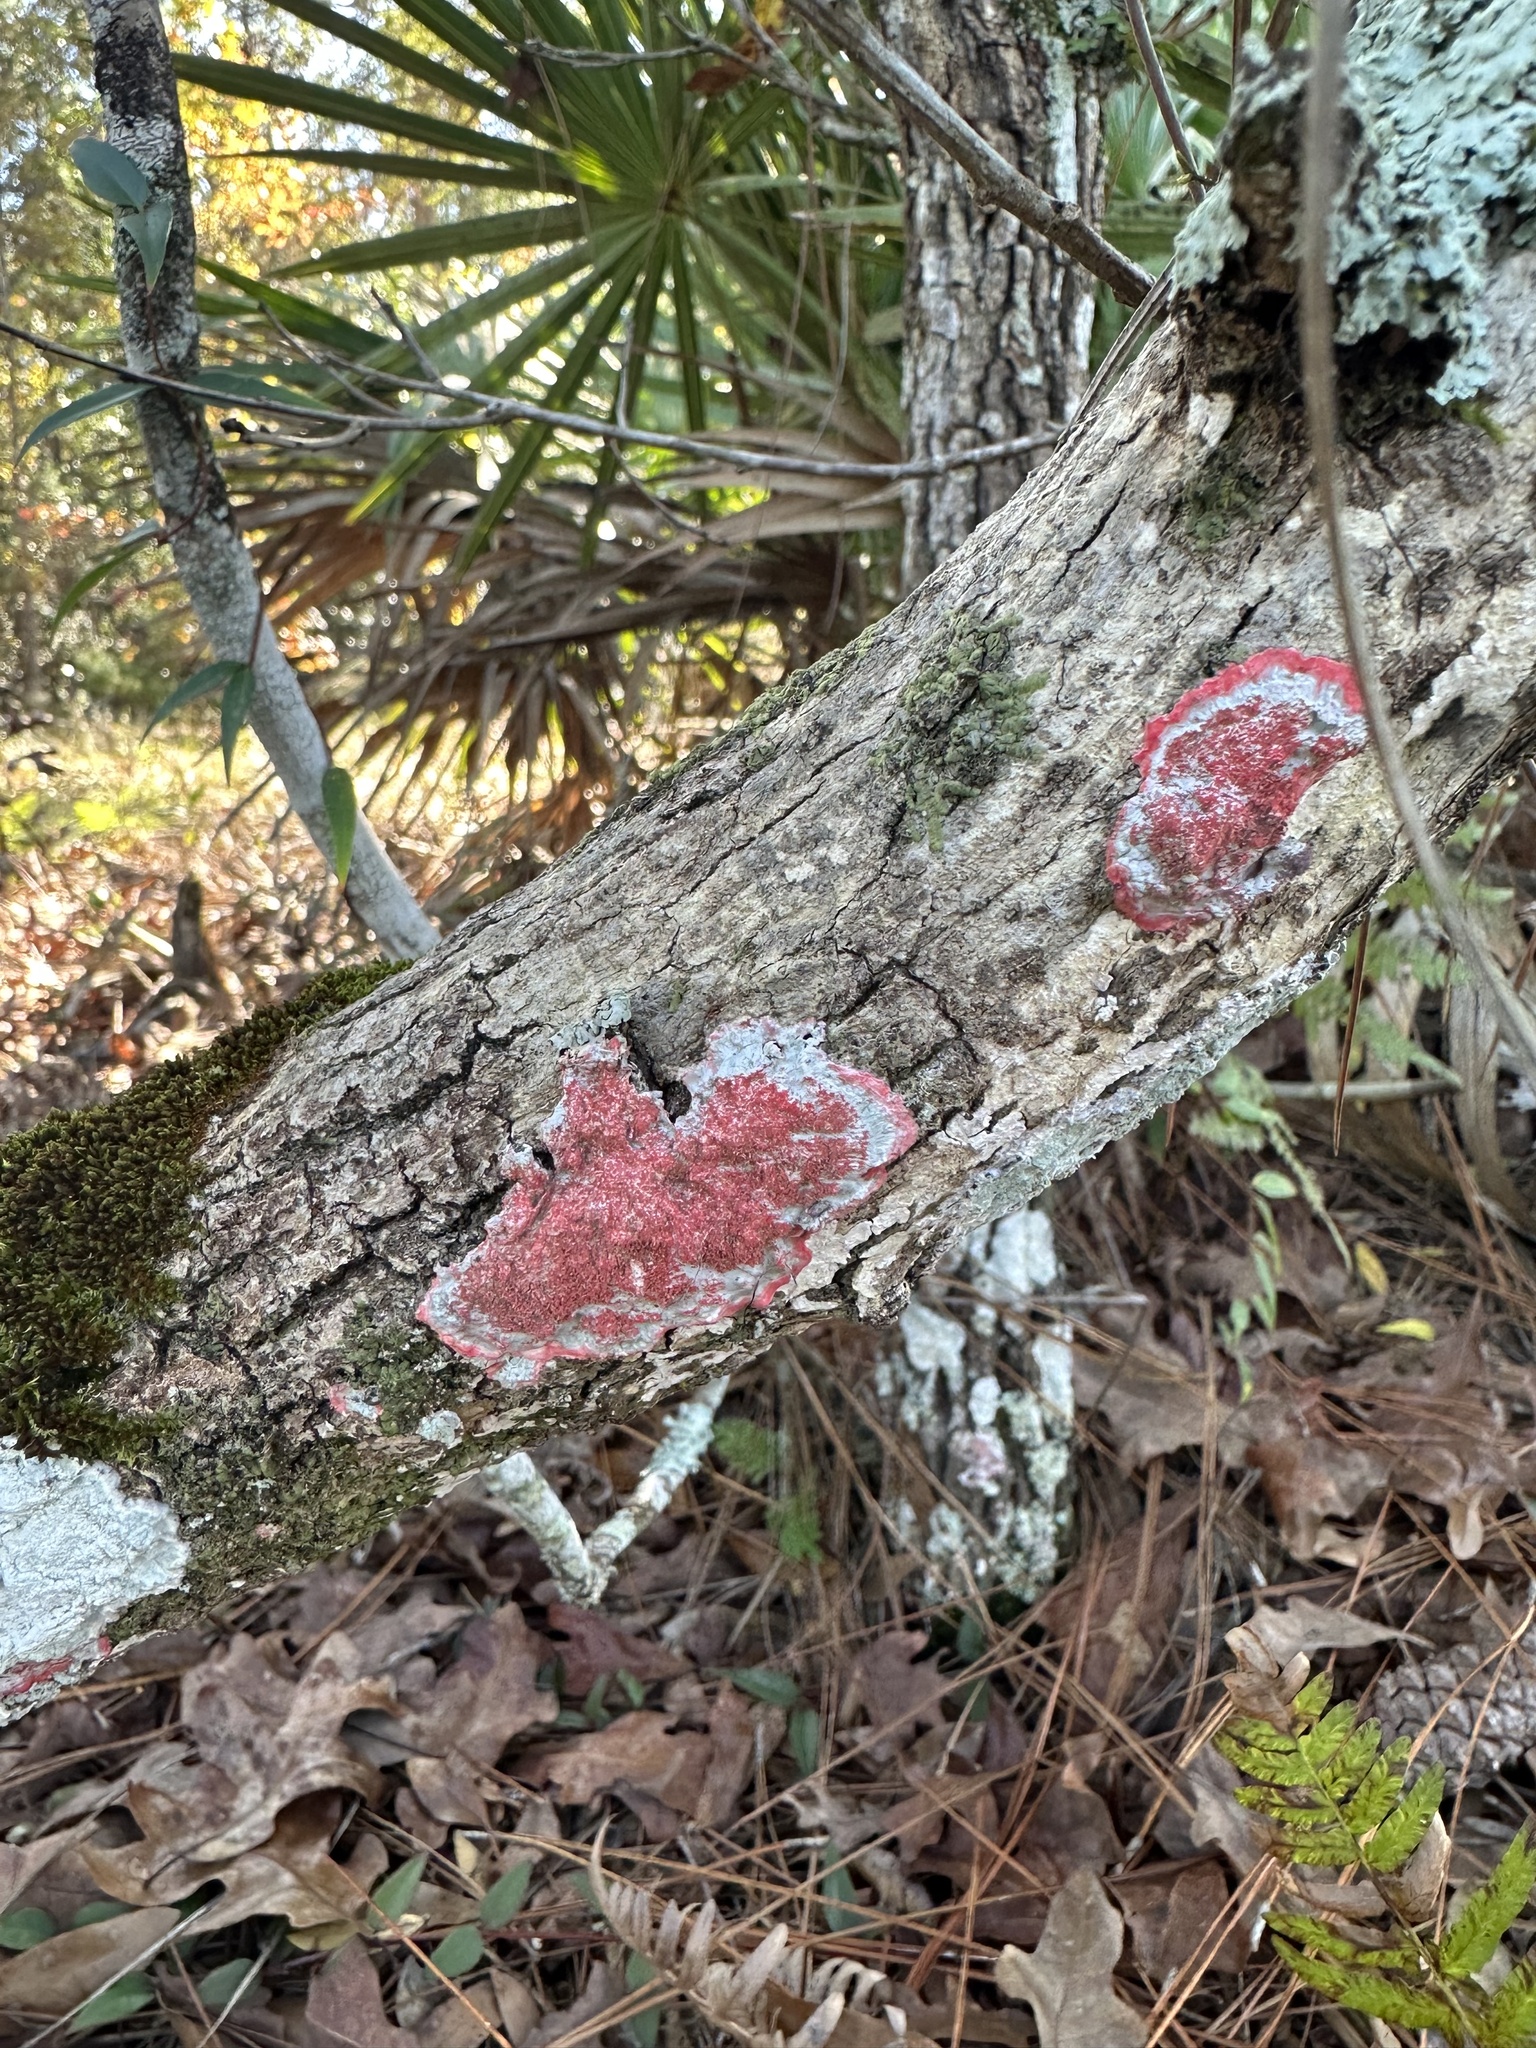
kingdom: Fungi
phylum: Ascomycota
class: Arthoniomycetes
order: Arthoniales
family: Arthoniaceae
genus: Herpothallon
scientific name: Herpothallon rubrocinctum
